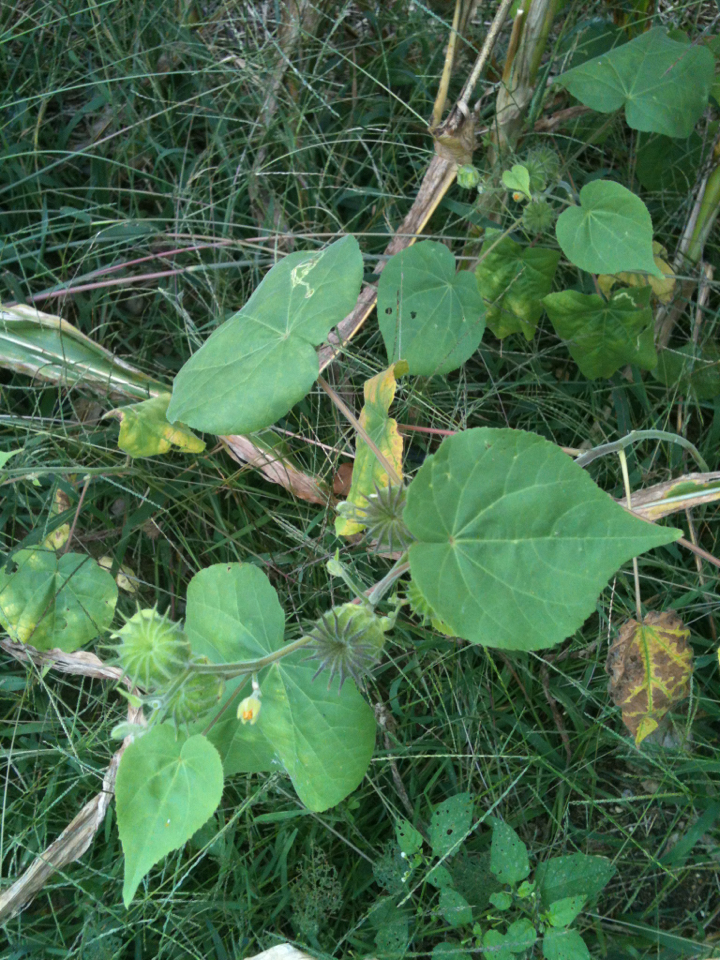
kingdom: Plantae
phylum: Tracheophyta
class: Magnoliopsida
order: Malvales
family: Malvaceae
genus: Abutilon
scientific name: Abutilon theophrasti
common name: Velvetleaf
